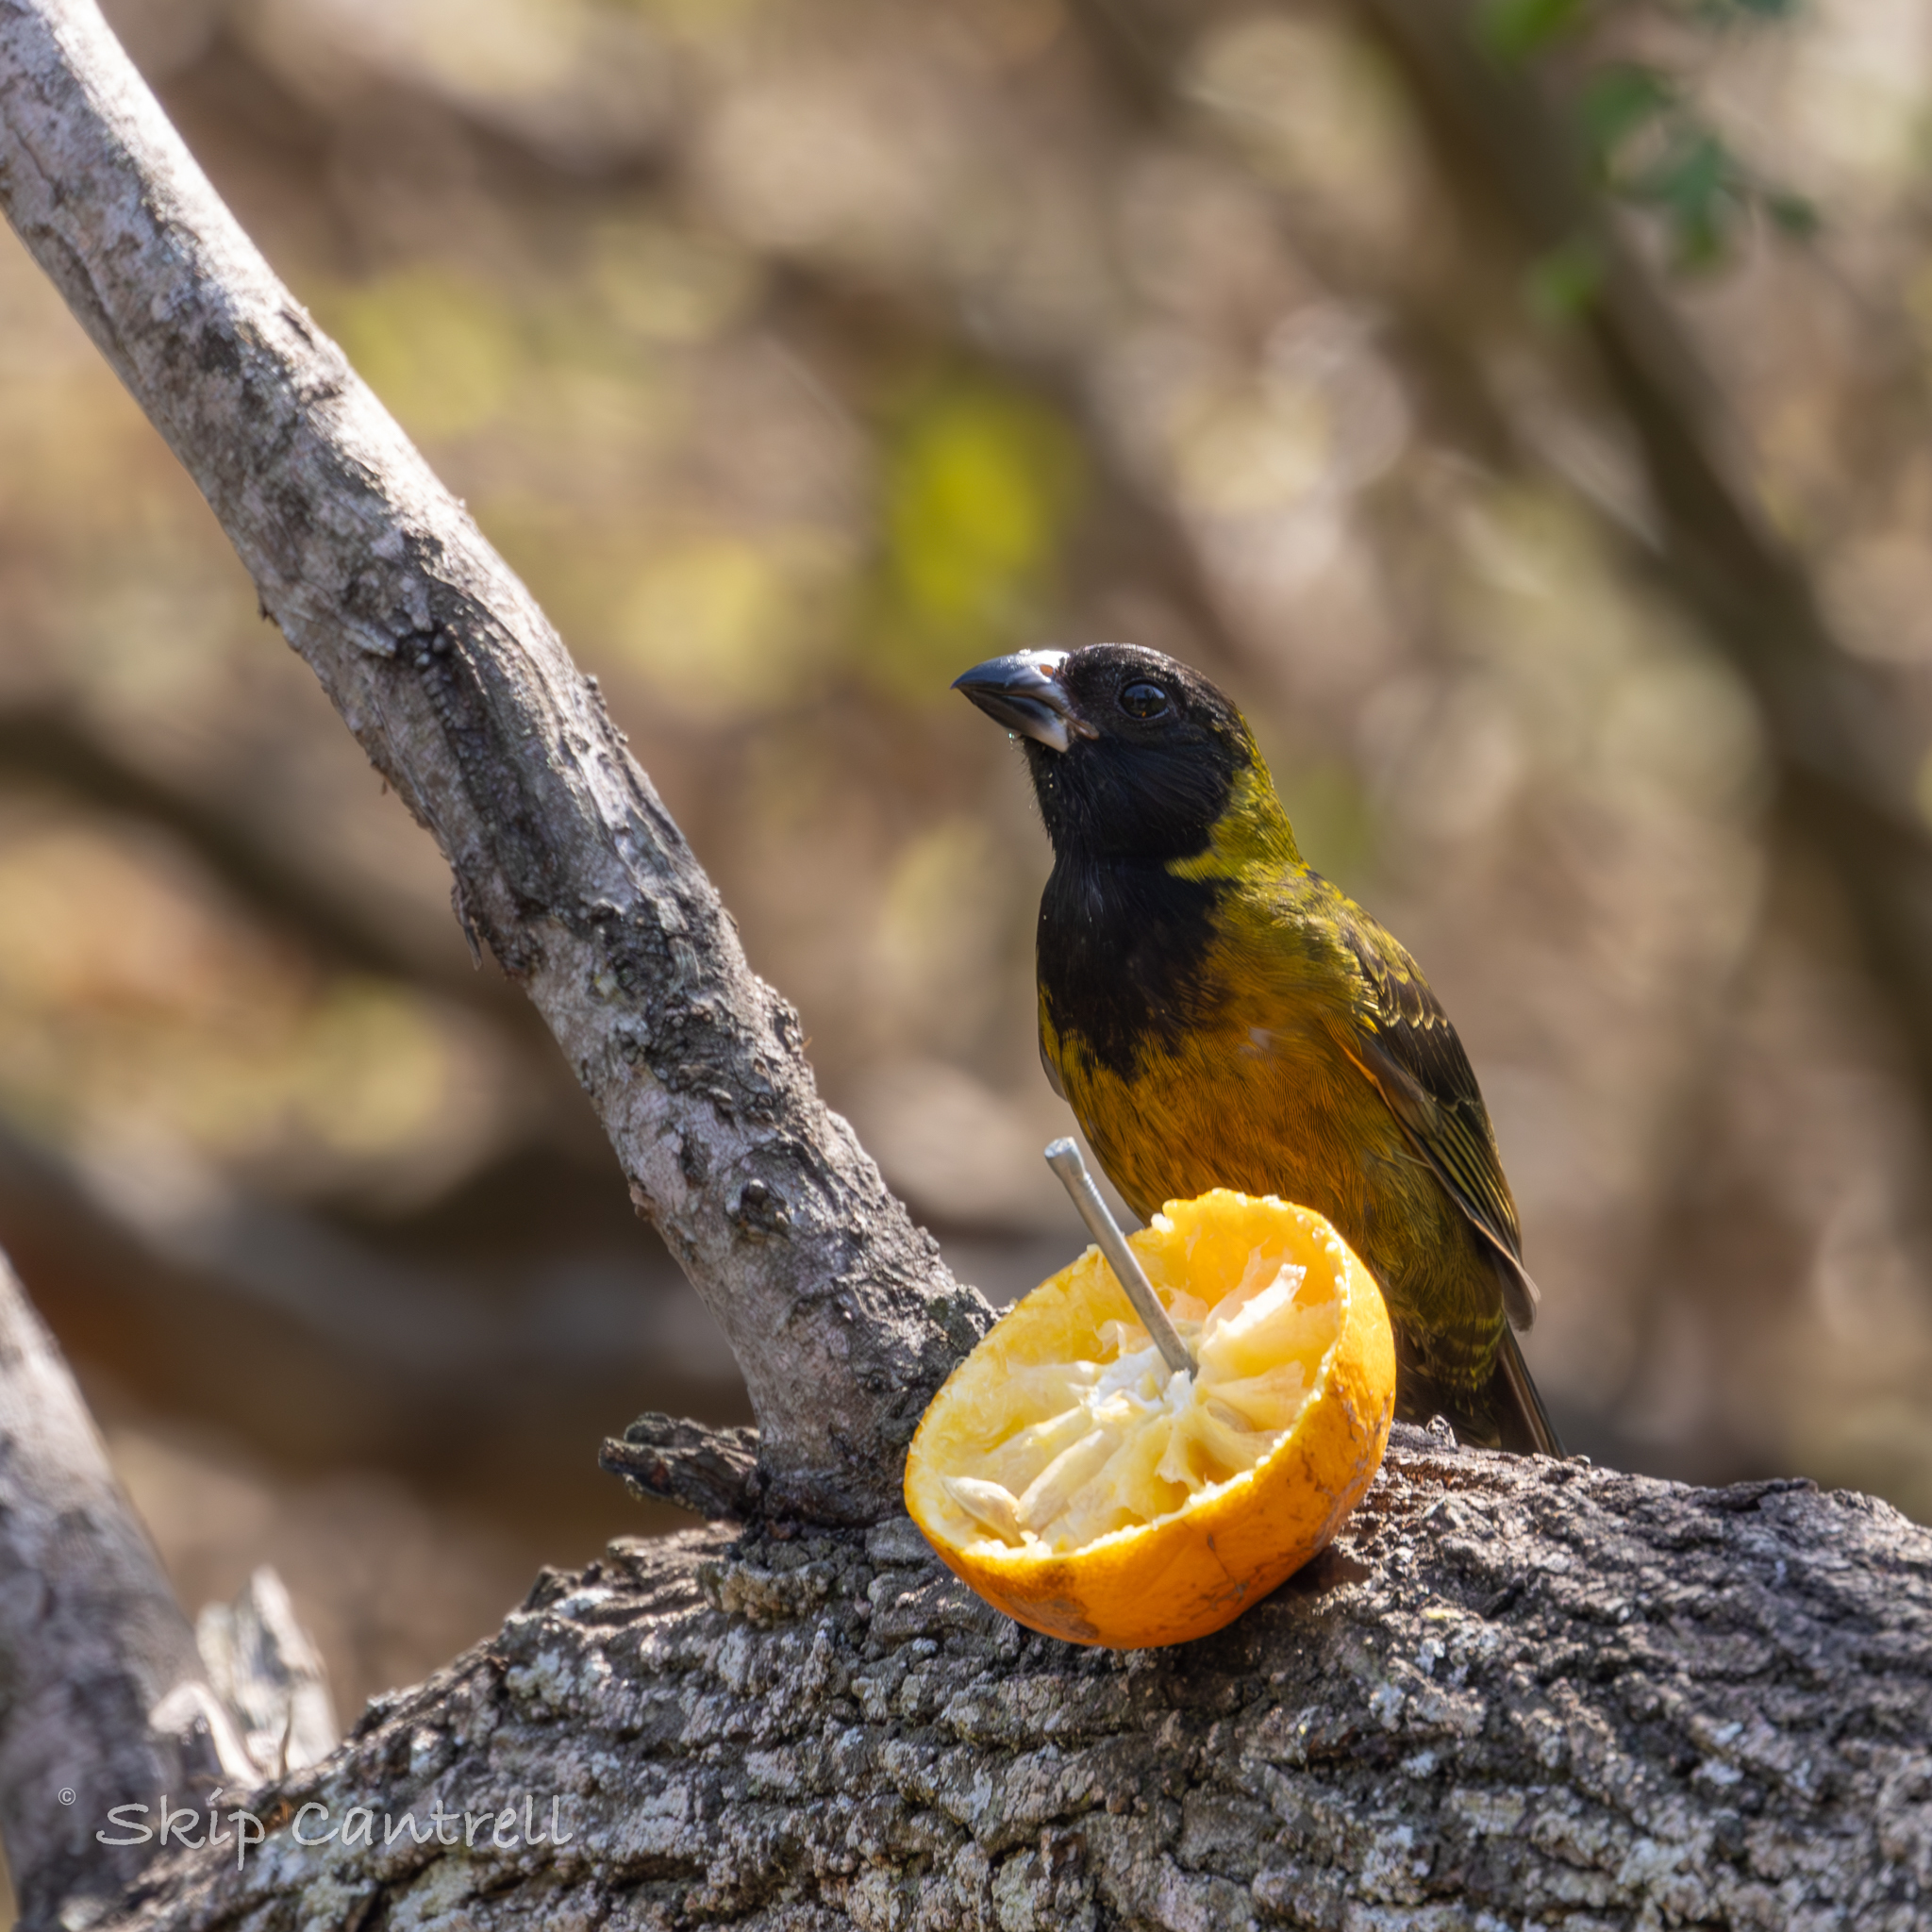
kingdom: Animalia
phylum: Chordata
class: Aves
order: Passeriformes
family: Cardinalidae
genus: Rhodothraupis
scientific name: Rhodothraupis celaeno
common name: Crimson-collared grosbeak
